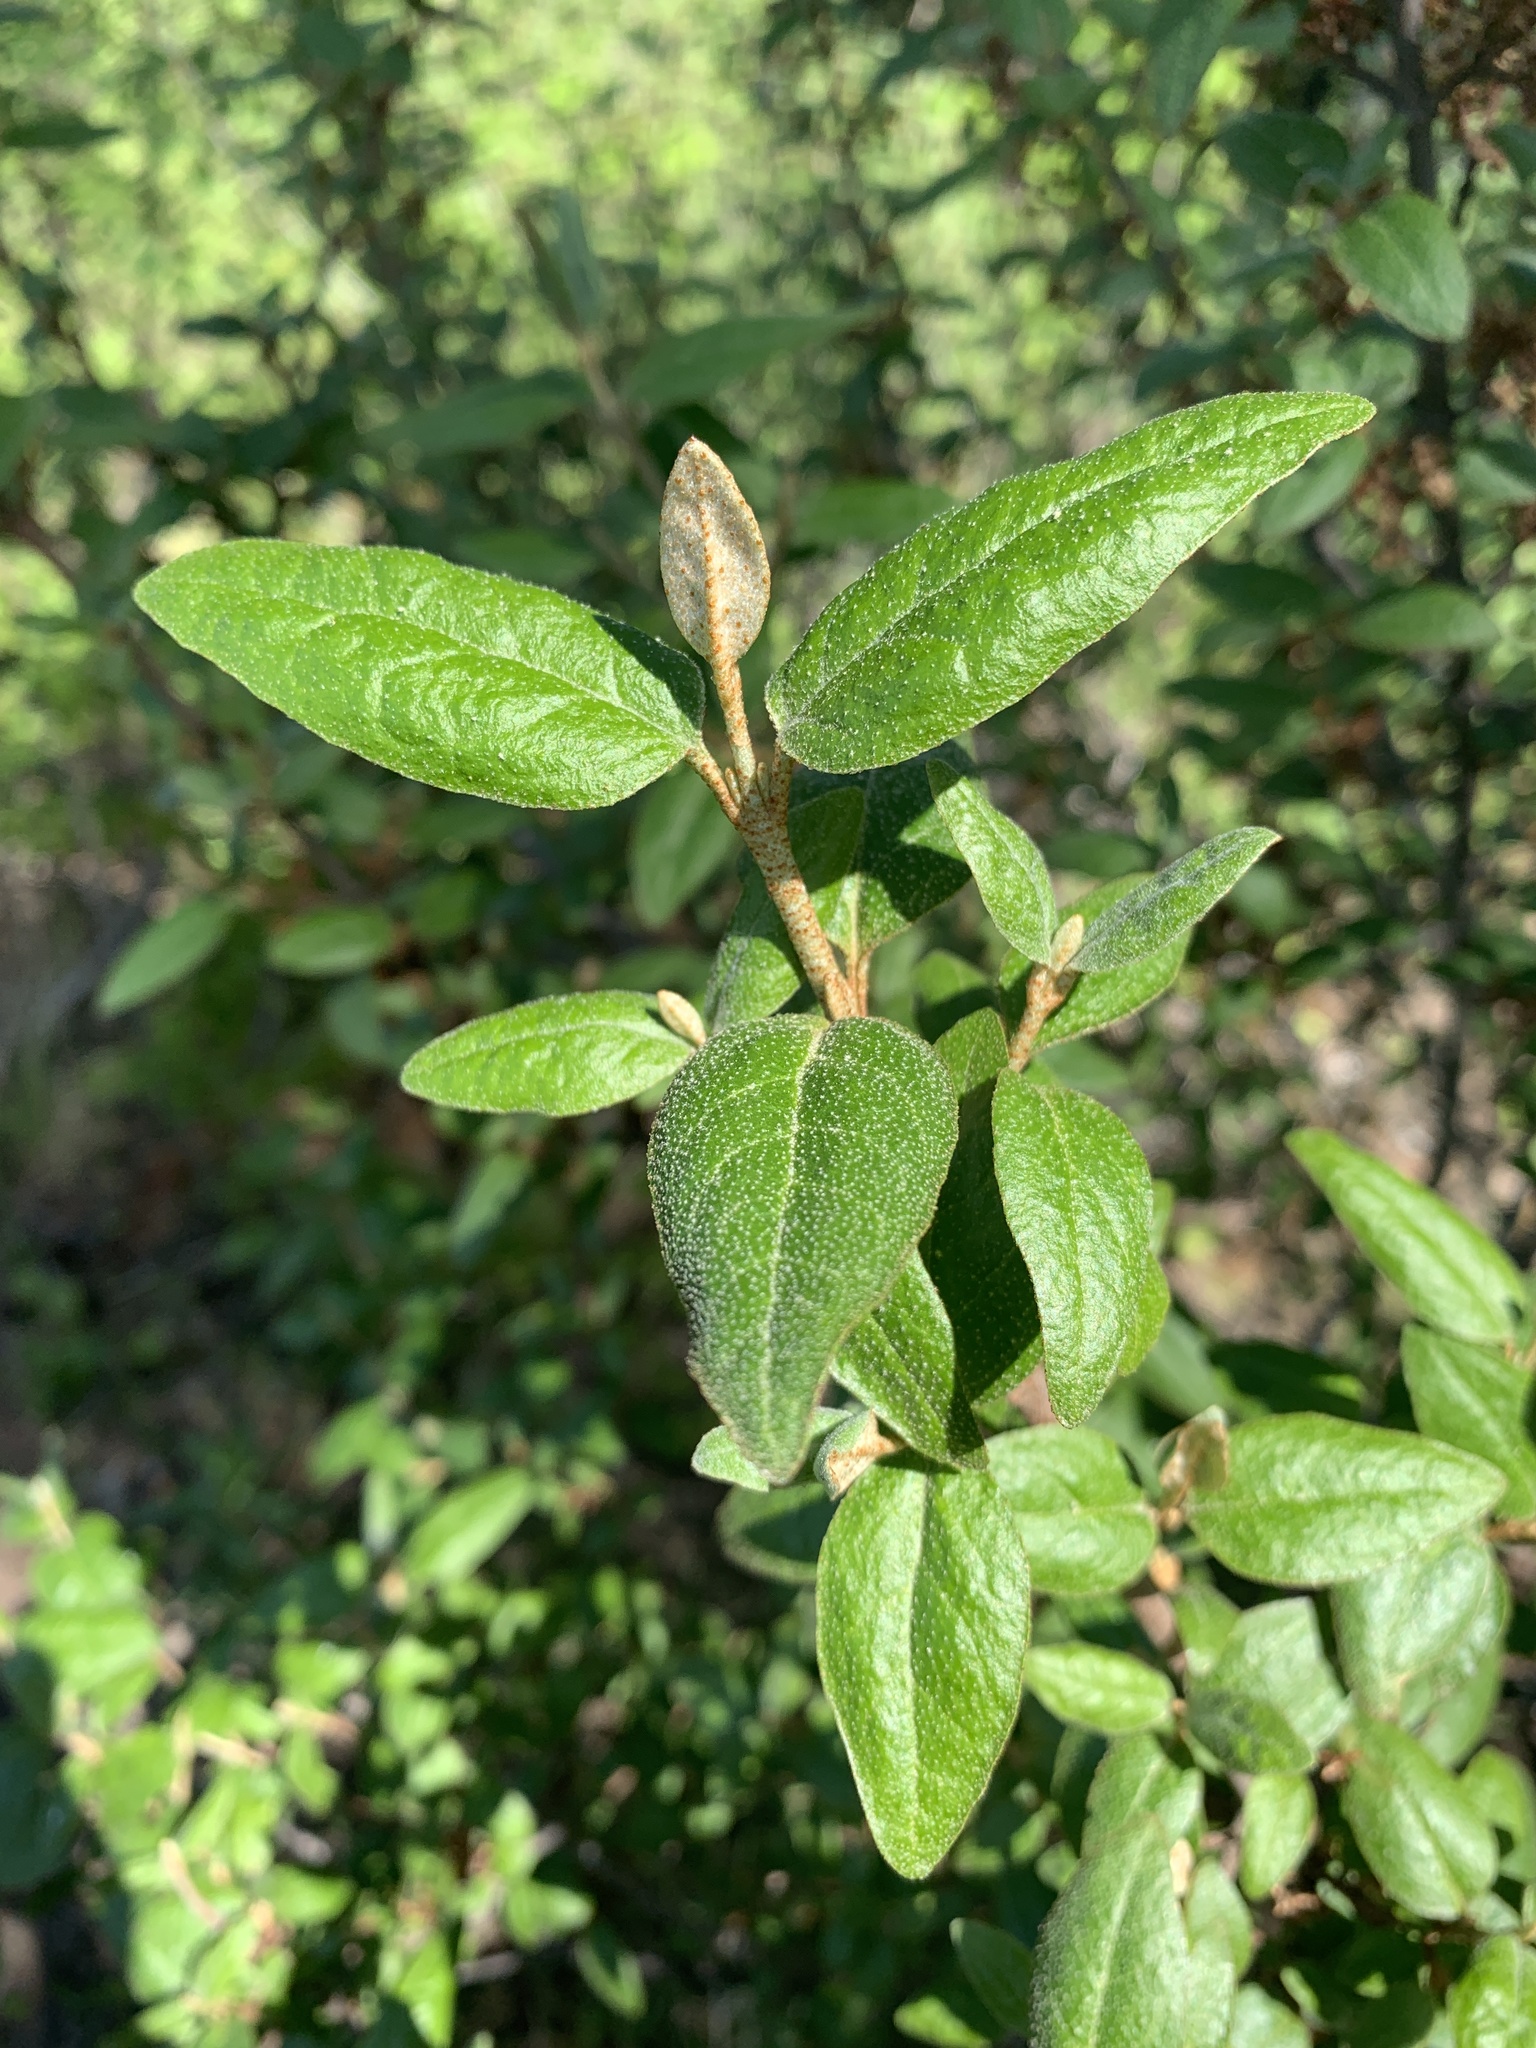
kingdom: Plantae
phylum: Tracheophyta
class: Magnoliopsida
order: Rosales
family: Elaeagnaceae
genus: Shepherdia
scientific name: Shepherdia canadensis
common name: Soapberry
